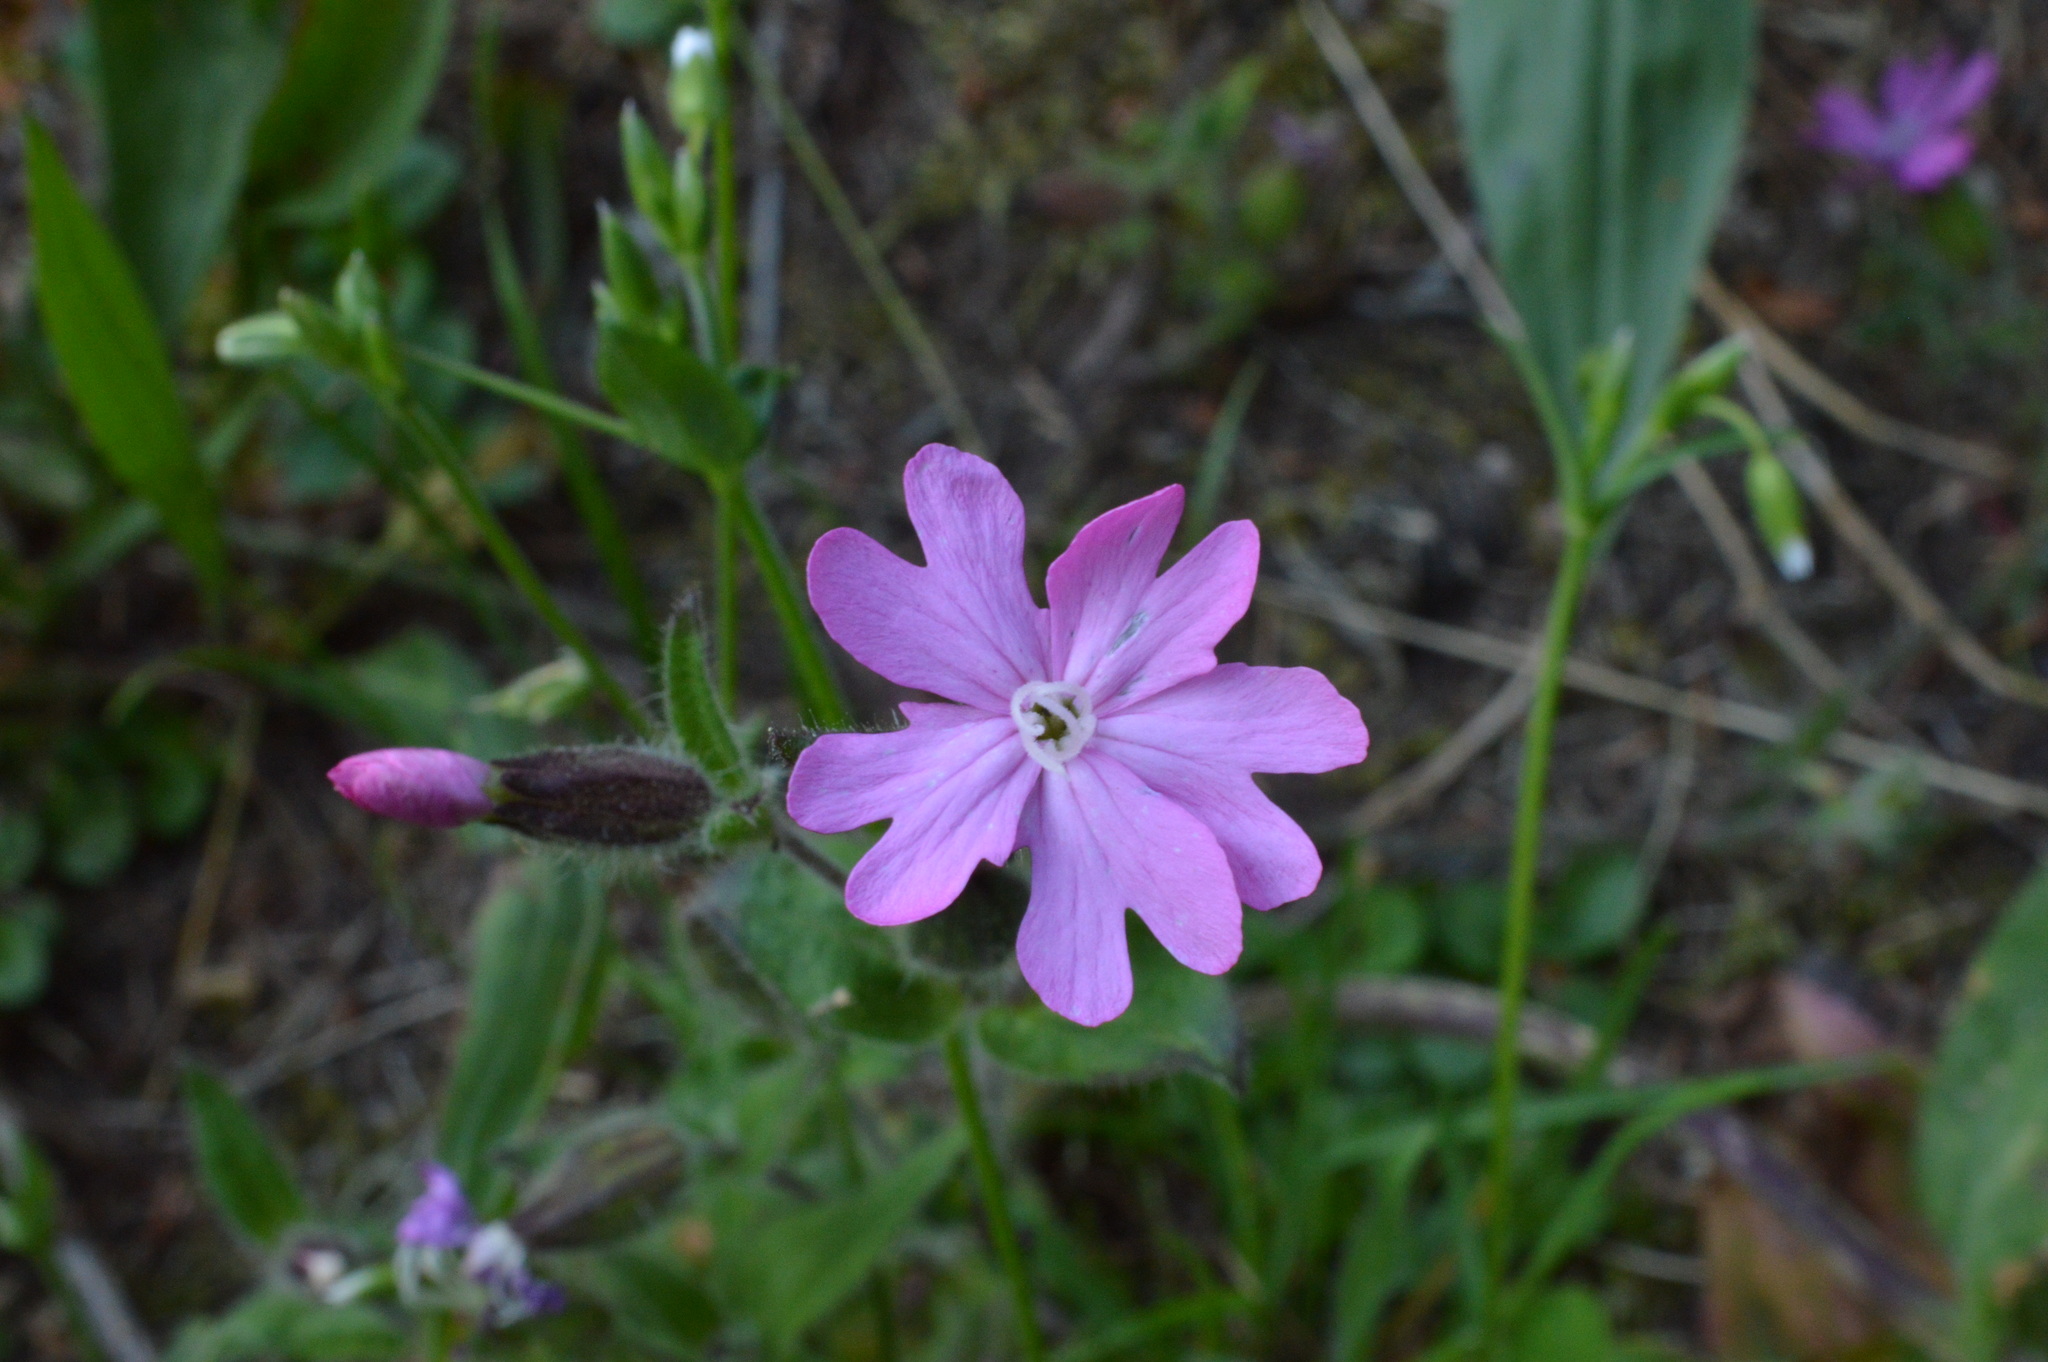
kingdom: Plantae
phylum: Tracheophyta
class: Magnoliopsida
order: Caryophyllales
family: Caryophyllaceae
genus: Silene
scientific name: Silene dioica
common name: Red campion
